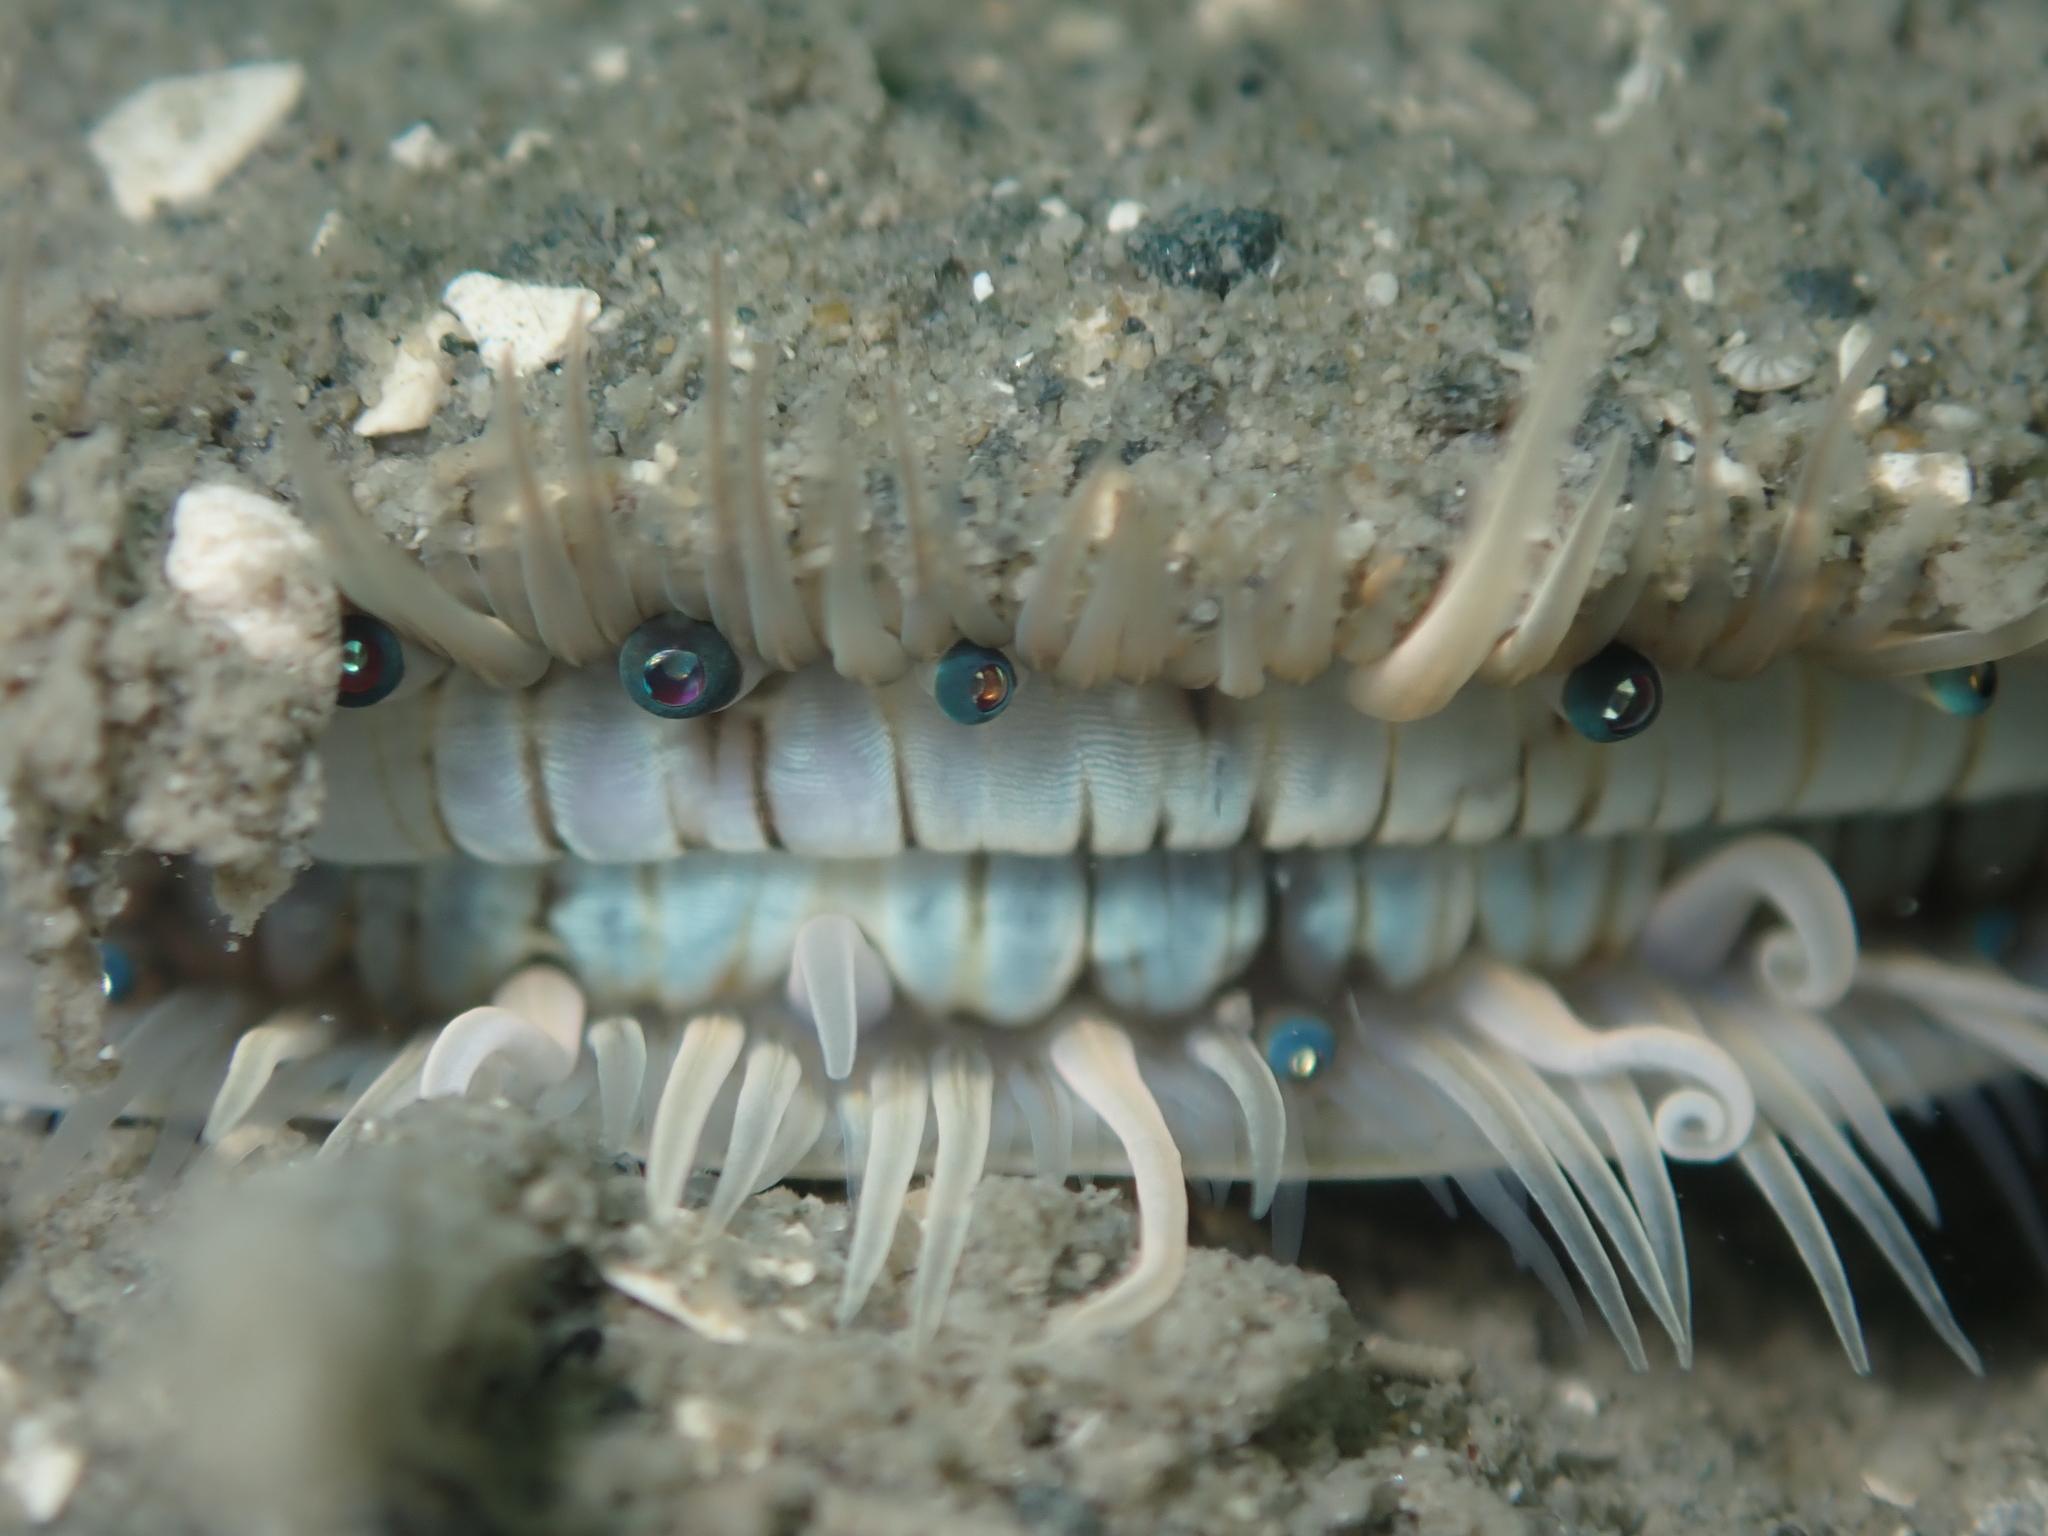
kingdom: Animalia
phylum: Mollusca
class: Bivalvia
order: Pectinida
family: Pectinidae
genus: Pecten
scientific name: Pecten novaezelandiae
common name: New zealand scallop
